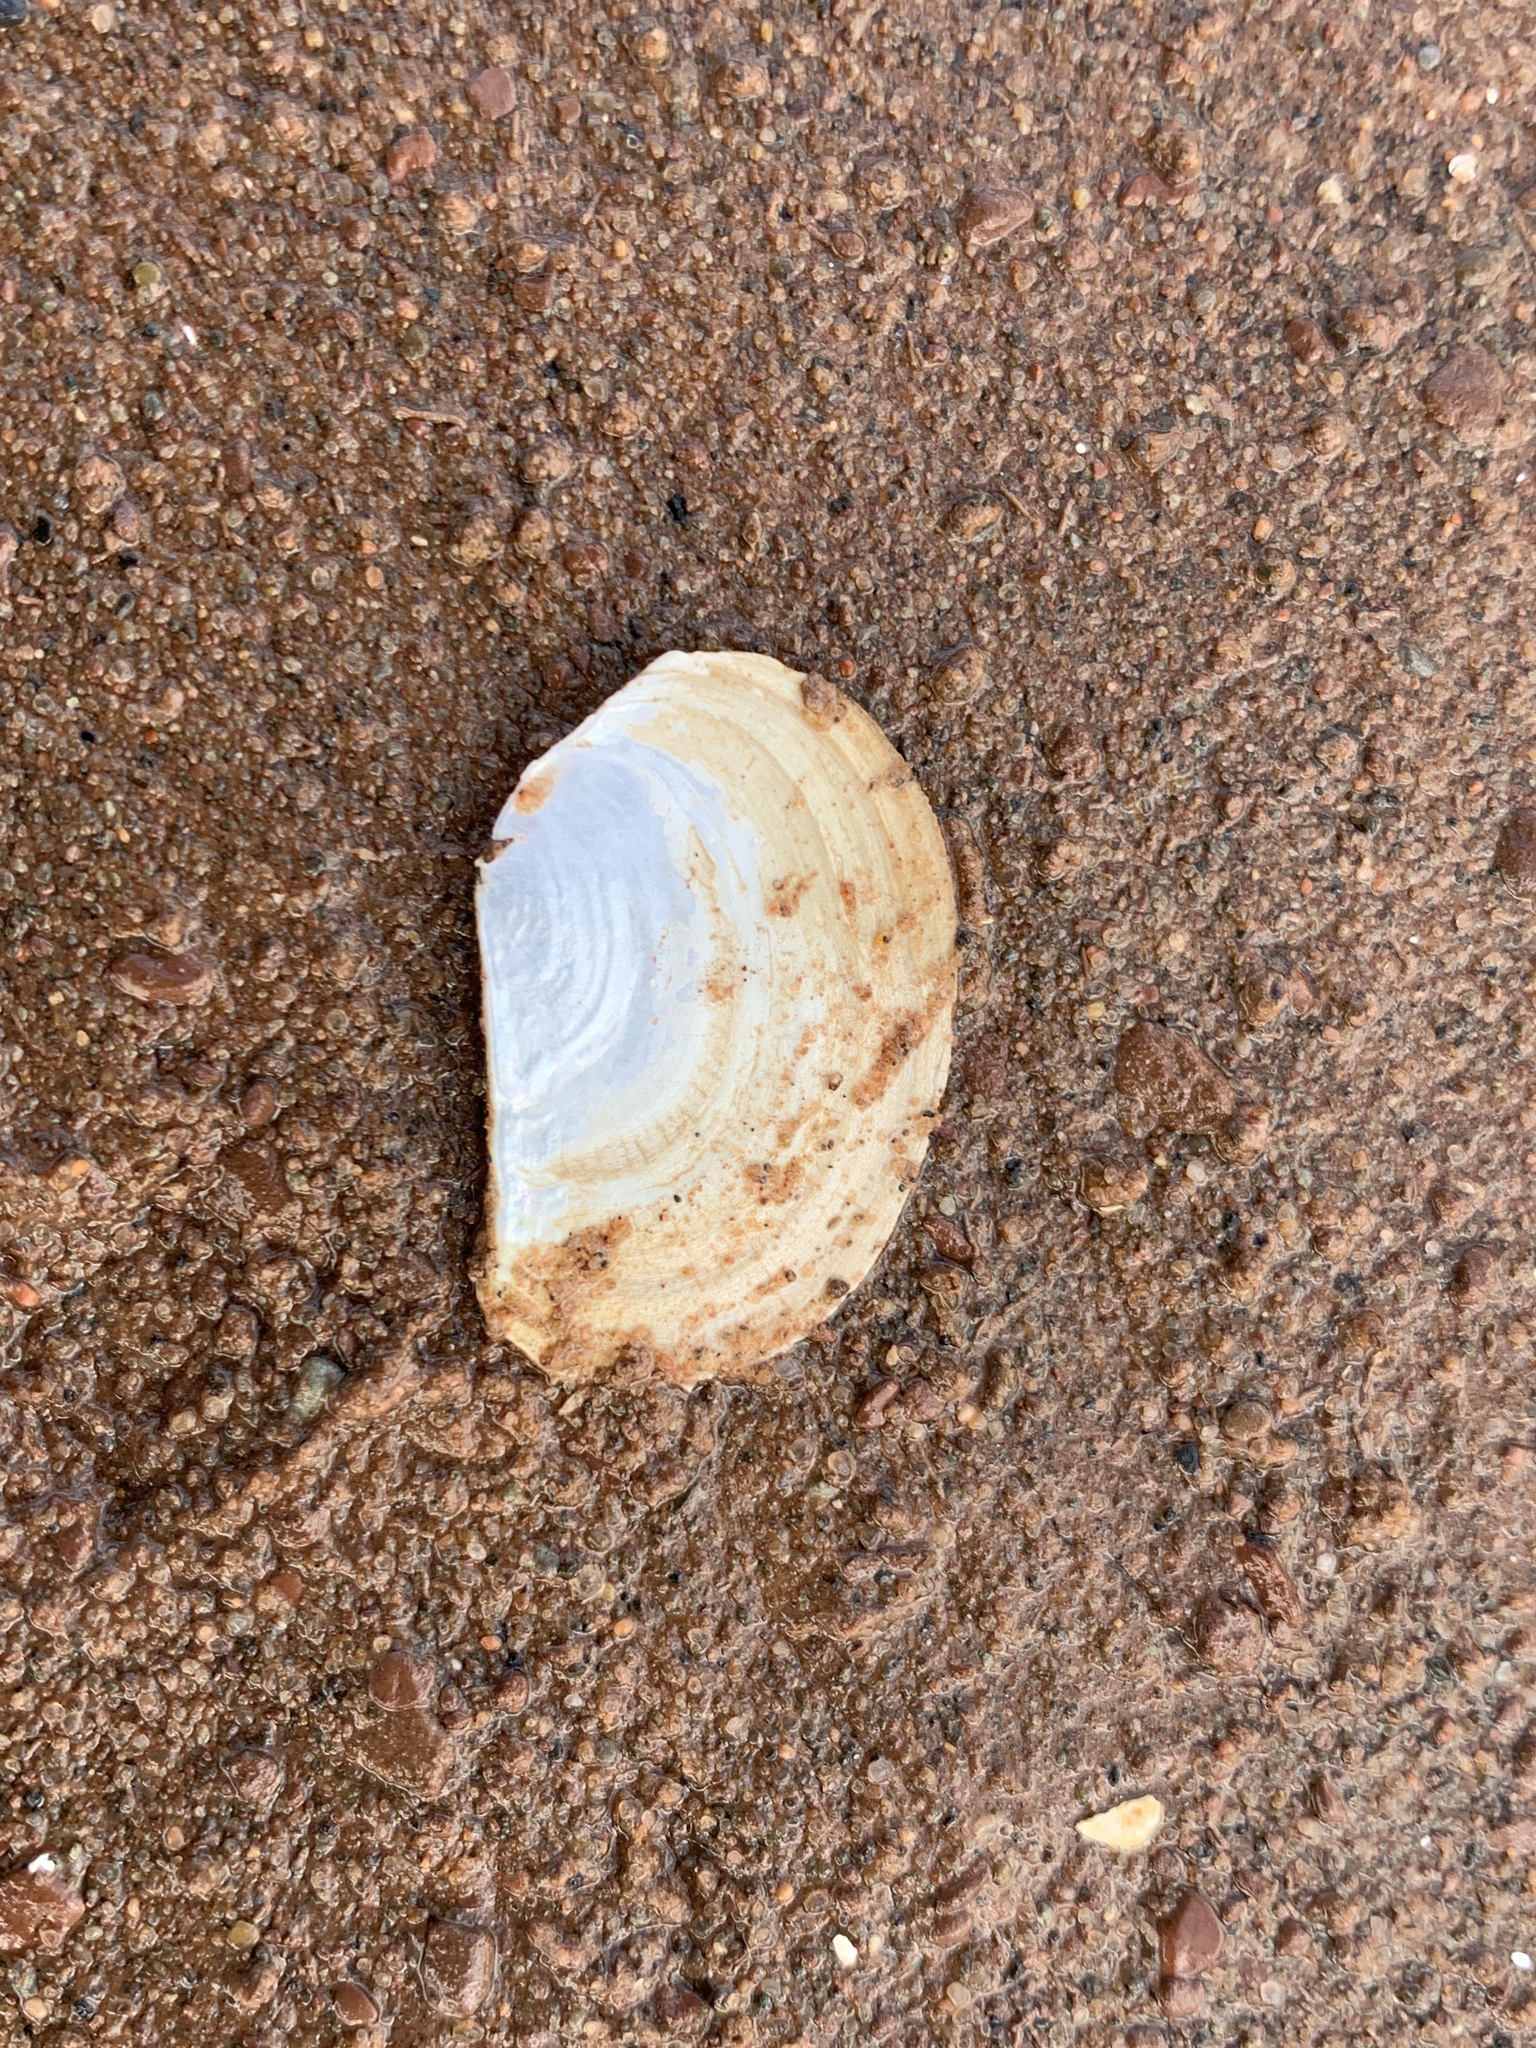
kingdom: Animalia
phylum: Mollusca
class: Bivalvia
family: Pandoridae
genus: Pandora
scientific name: Pandora gouldiana
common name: Rounded pandora
